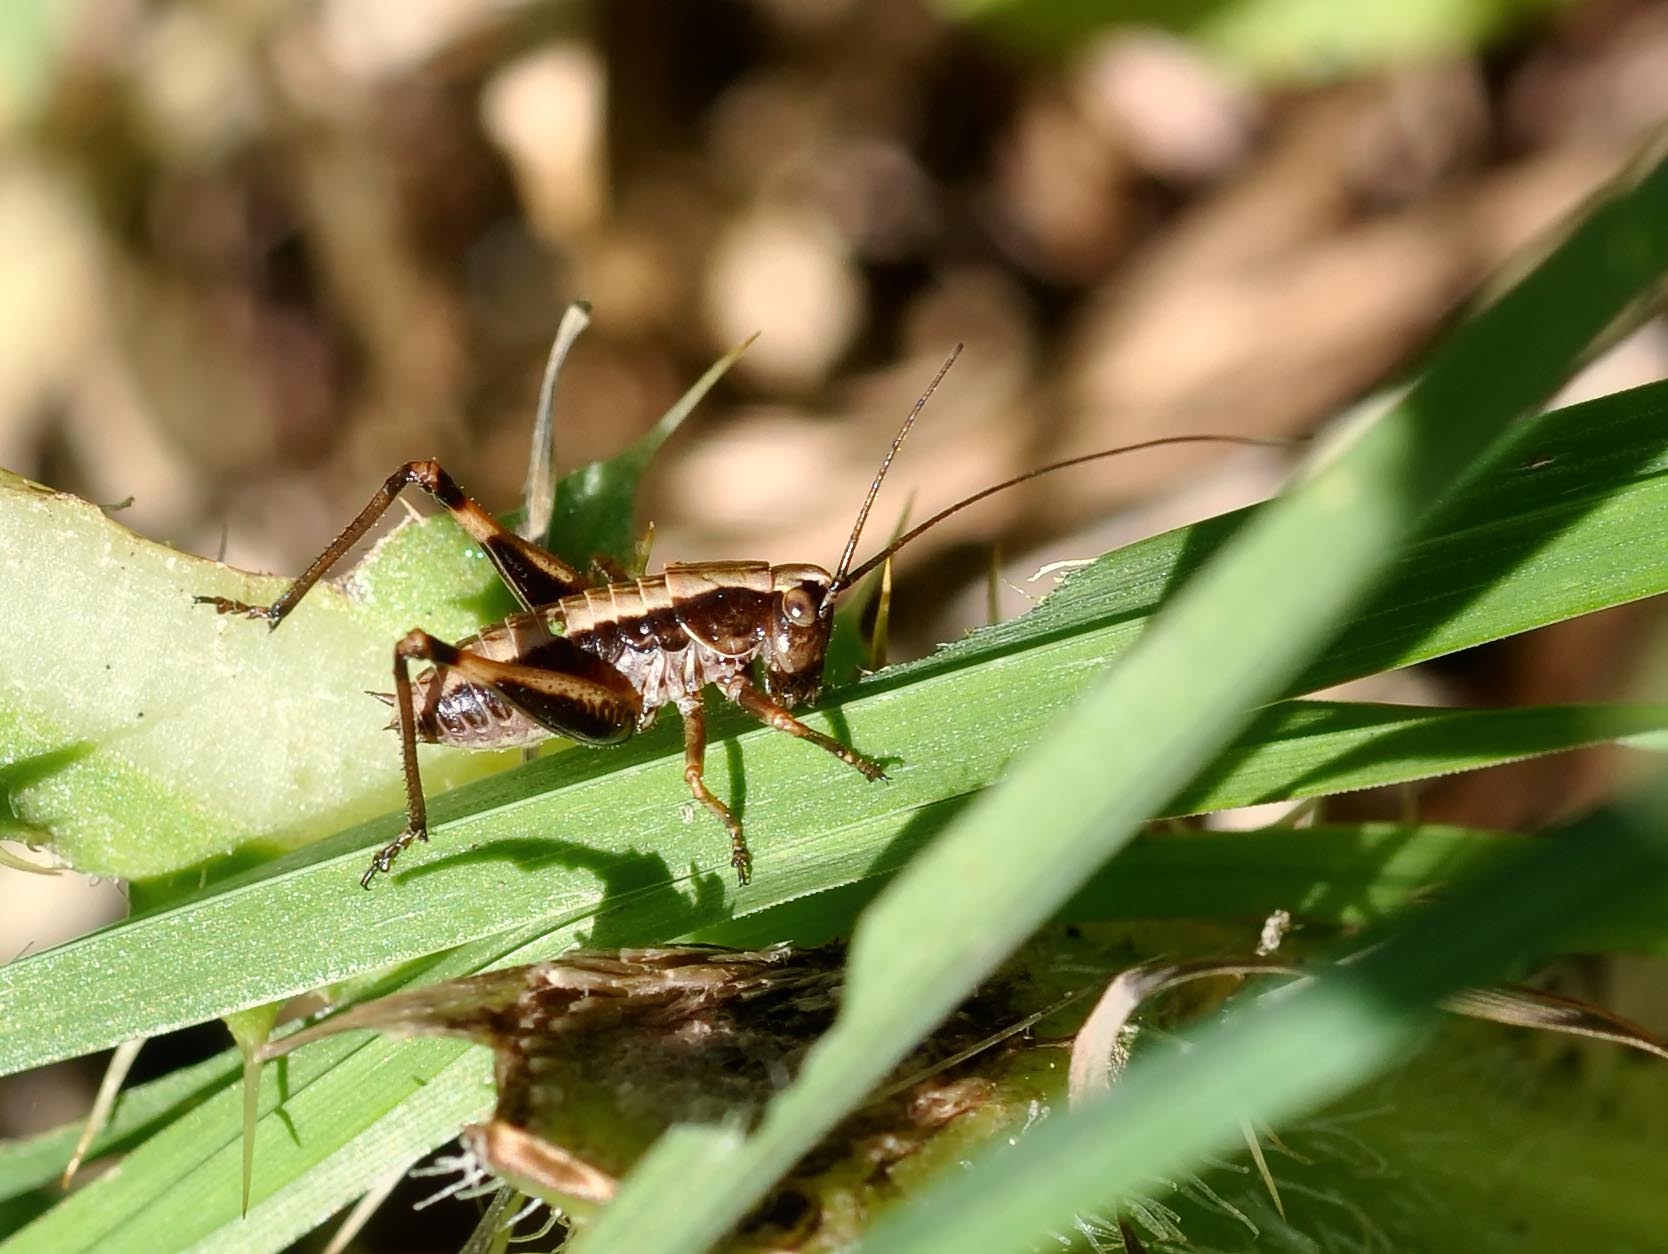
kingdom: Animalia
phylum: Arthropoda
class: Insecta
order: Orthoptera
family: Tettigoniidae
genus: Pholidoptera
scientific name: Pholidoptera griseoaptera
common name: Dark bush-cricket
